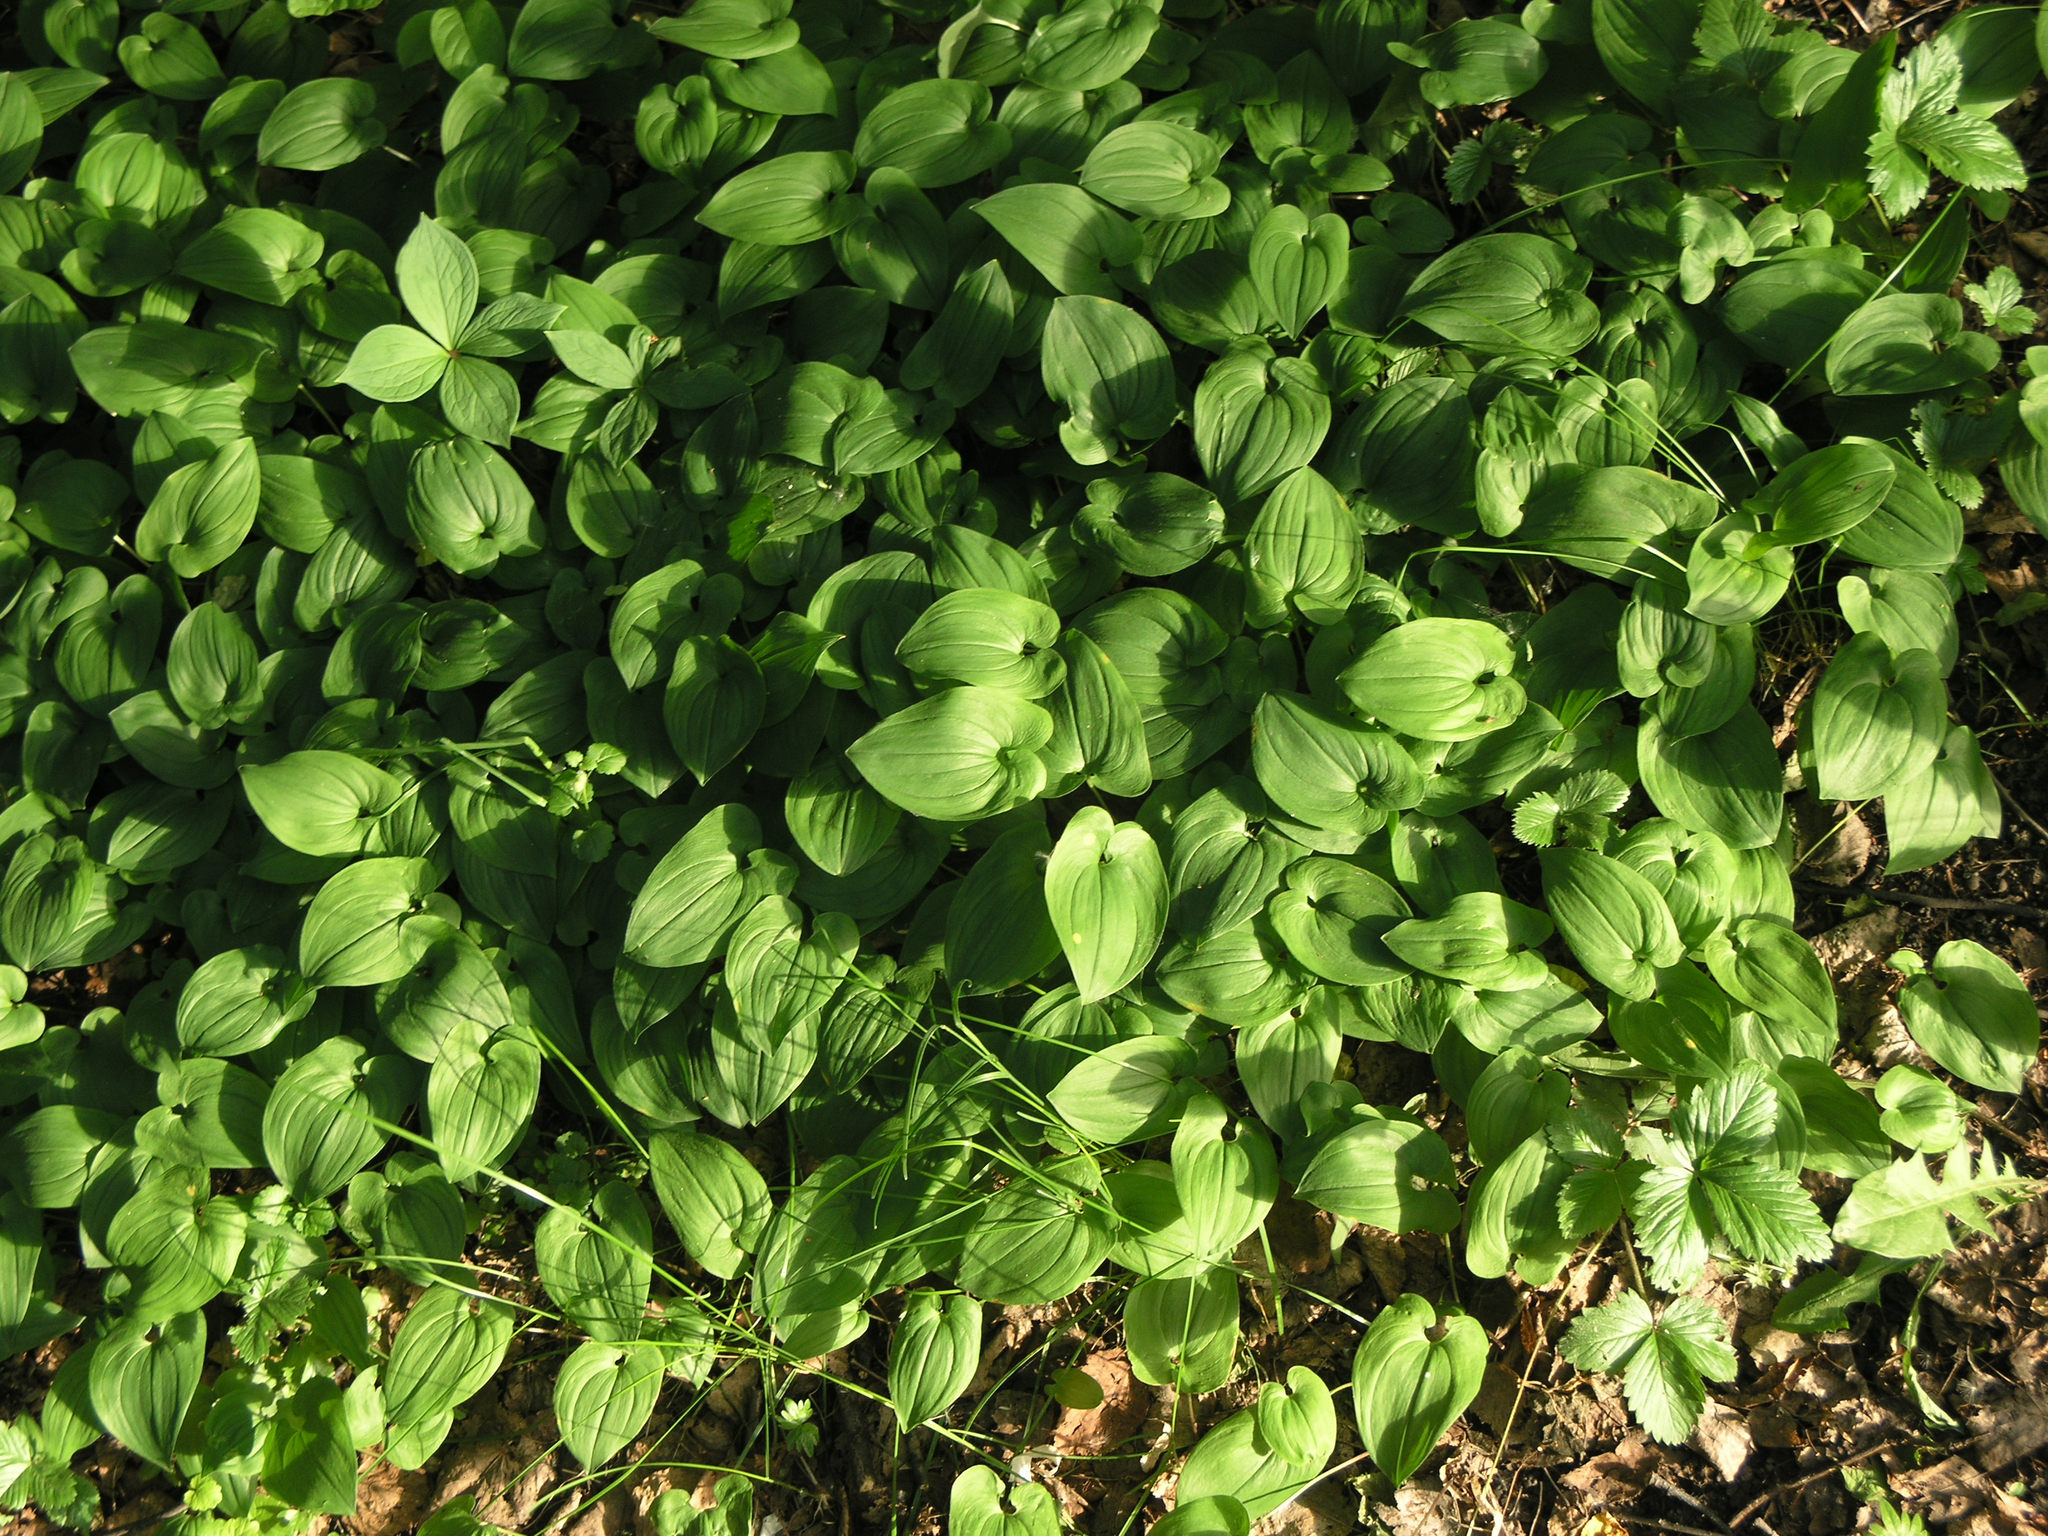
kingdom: Plantae
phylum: Tracheophyta
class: Liliopsida
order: Asparagales
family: Asparagaceae
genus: Maianthemum
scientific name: Maianthemum bifolium
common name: May lily
